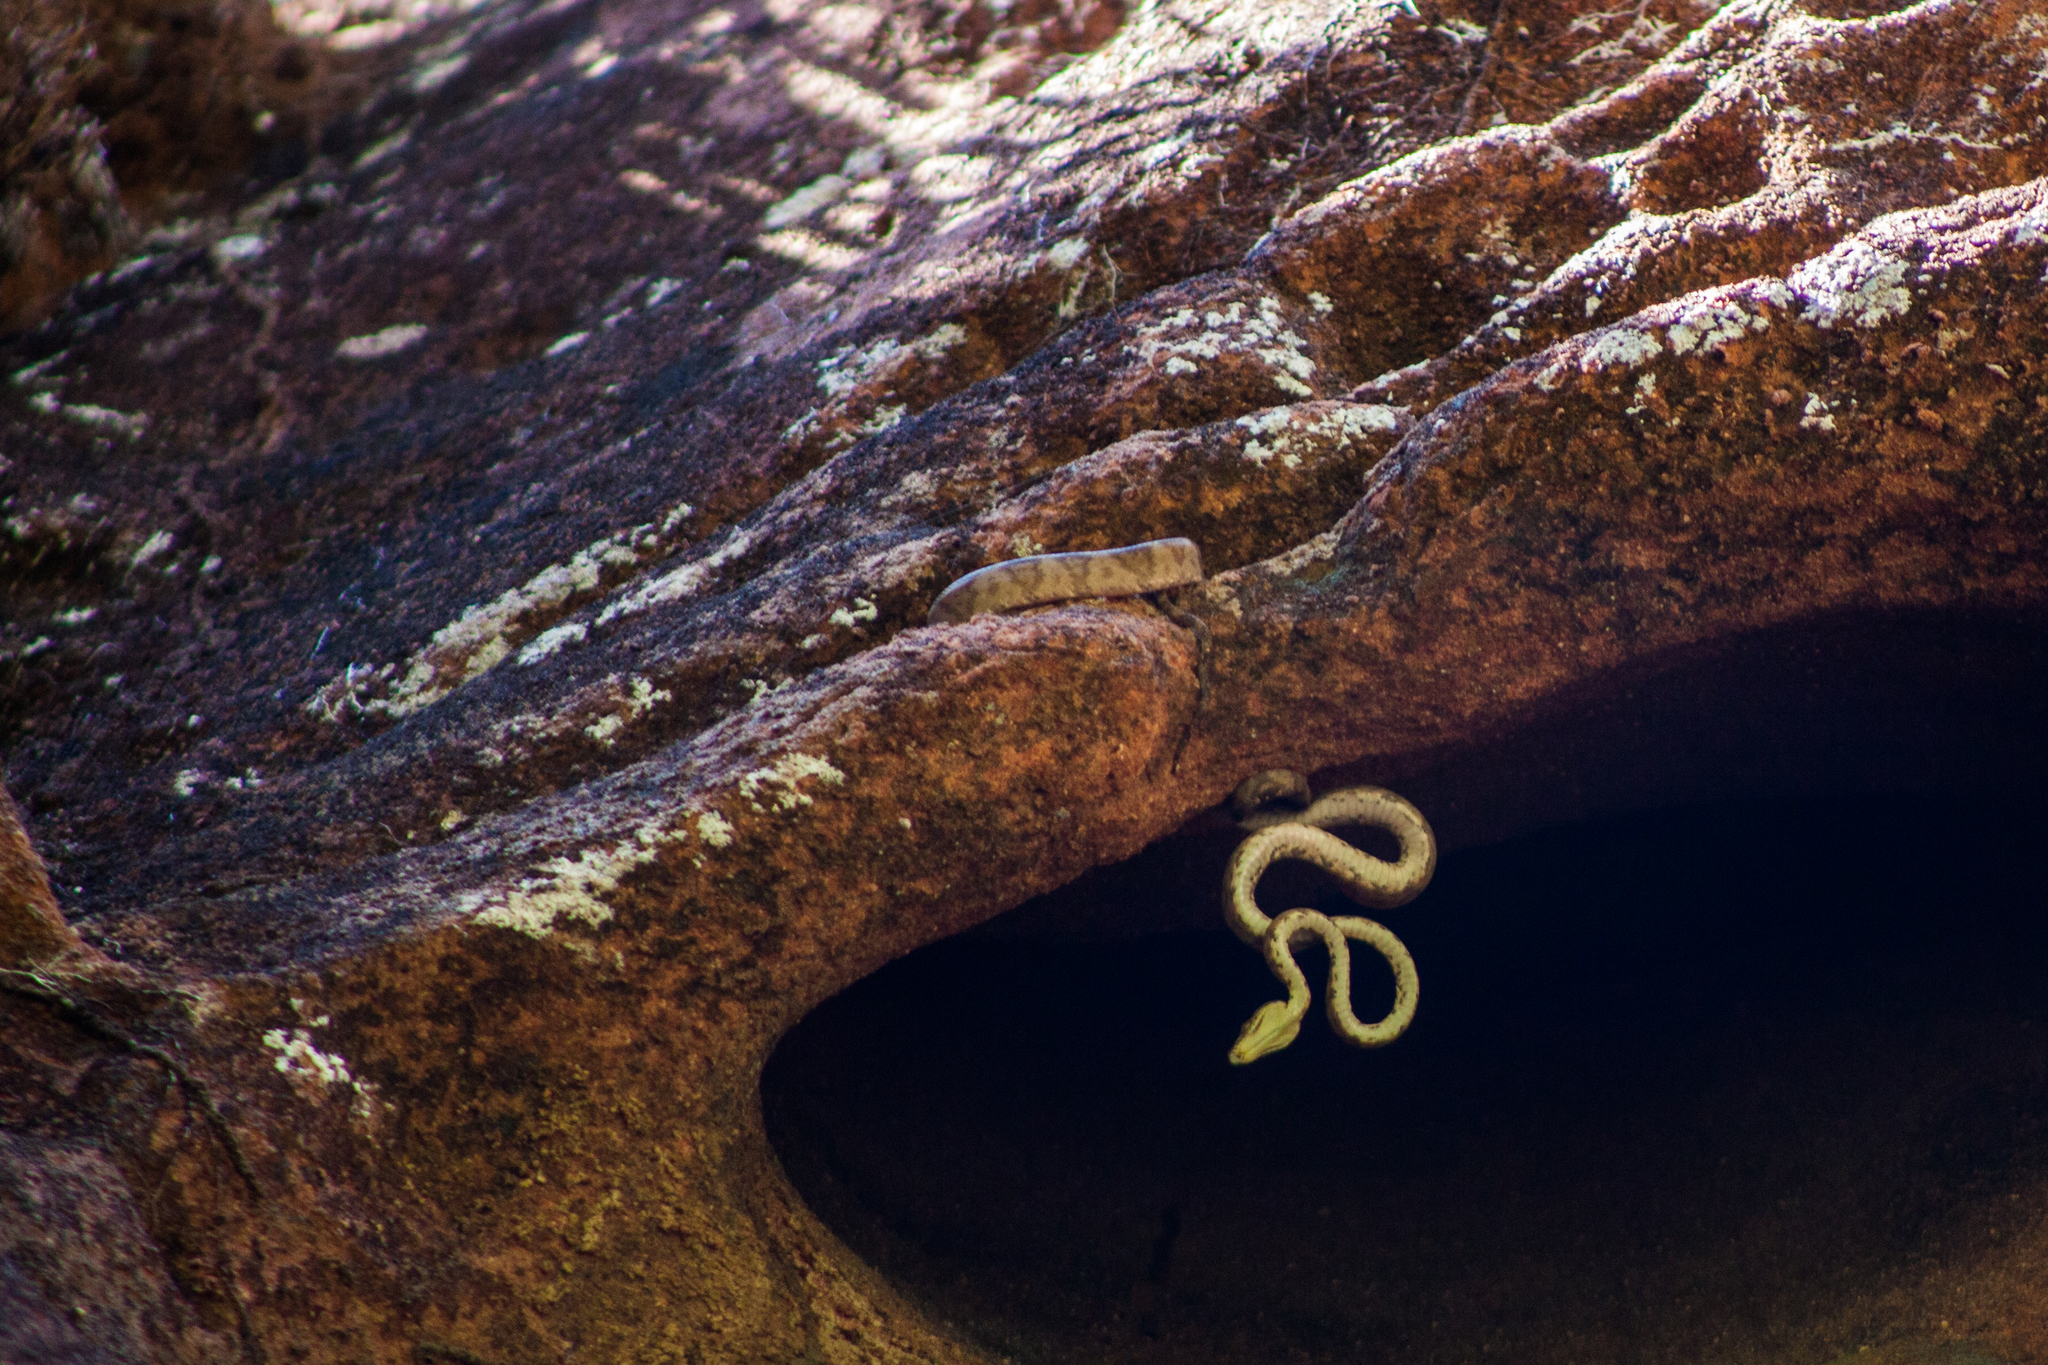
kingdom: Animalia
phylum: Chordata
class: Squamata
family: Boidae
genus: Corallus
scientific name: Corallus hortulana
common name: Garden tree boa
